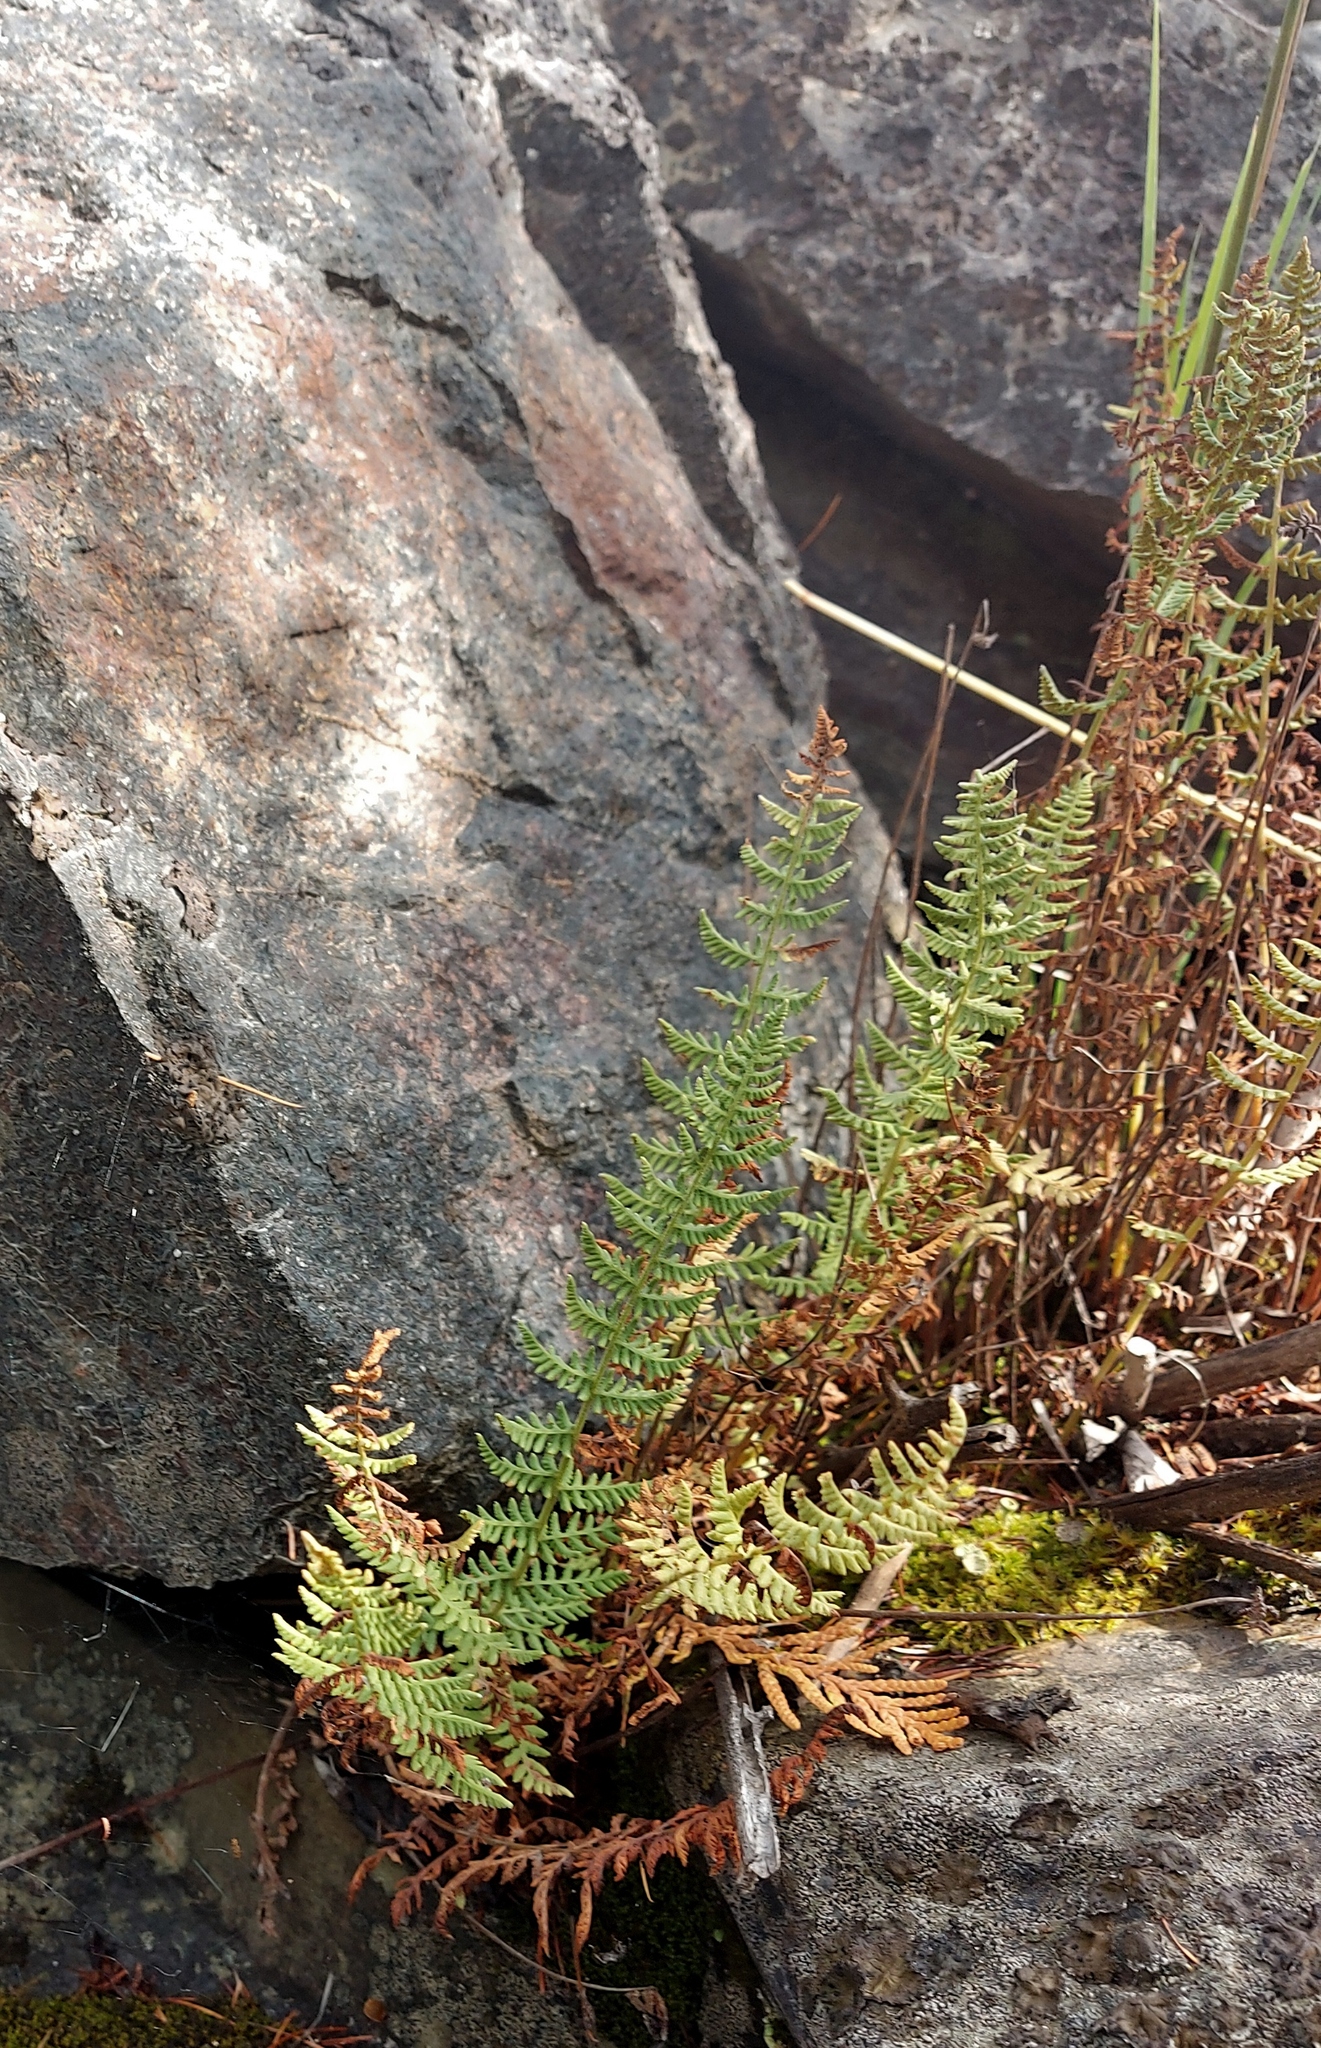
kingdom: Plantae
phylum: Tracheophyta
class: Polypodiopsida
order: Polypodiales
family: Woodsiaceae
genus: Physematium
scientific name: Physematium scopulinum
